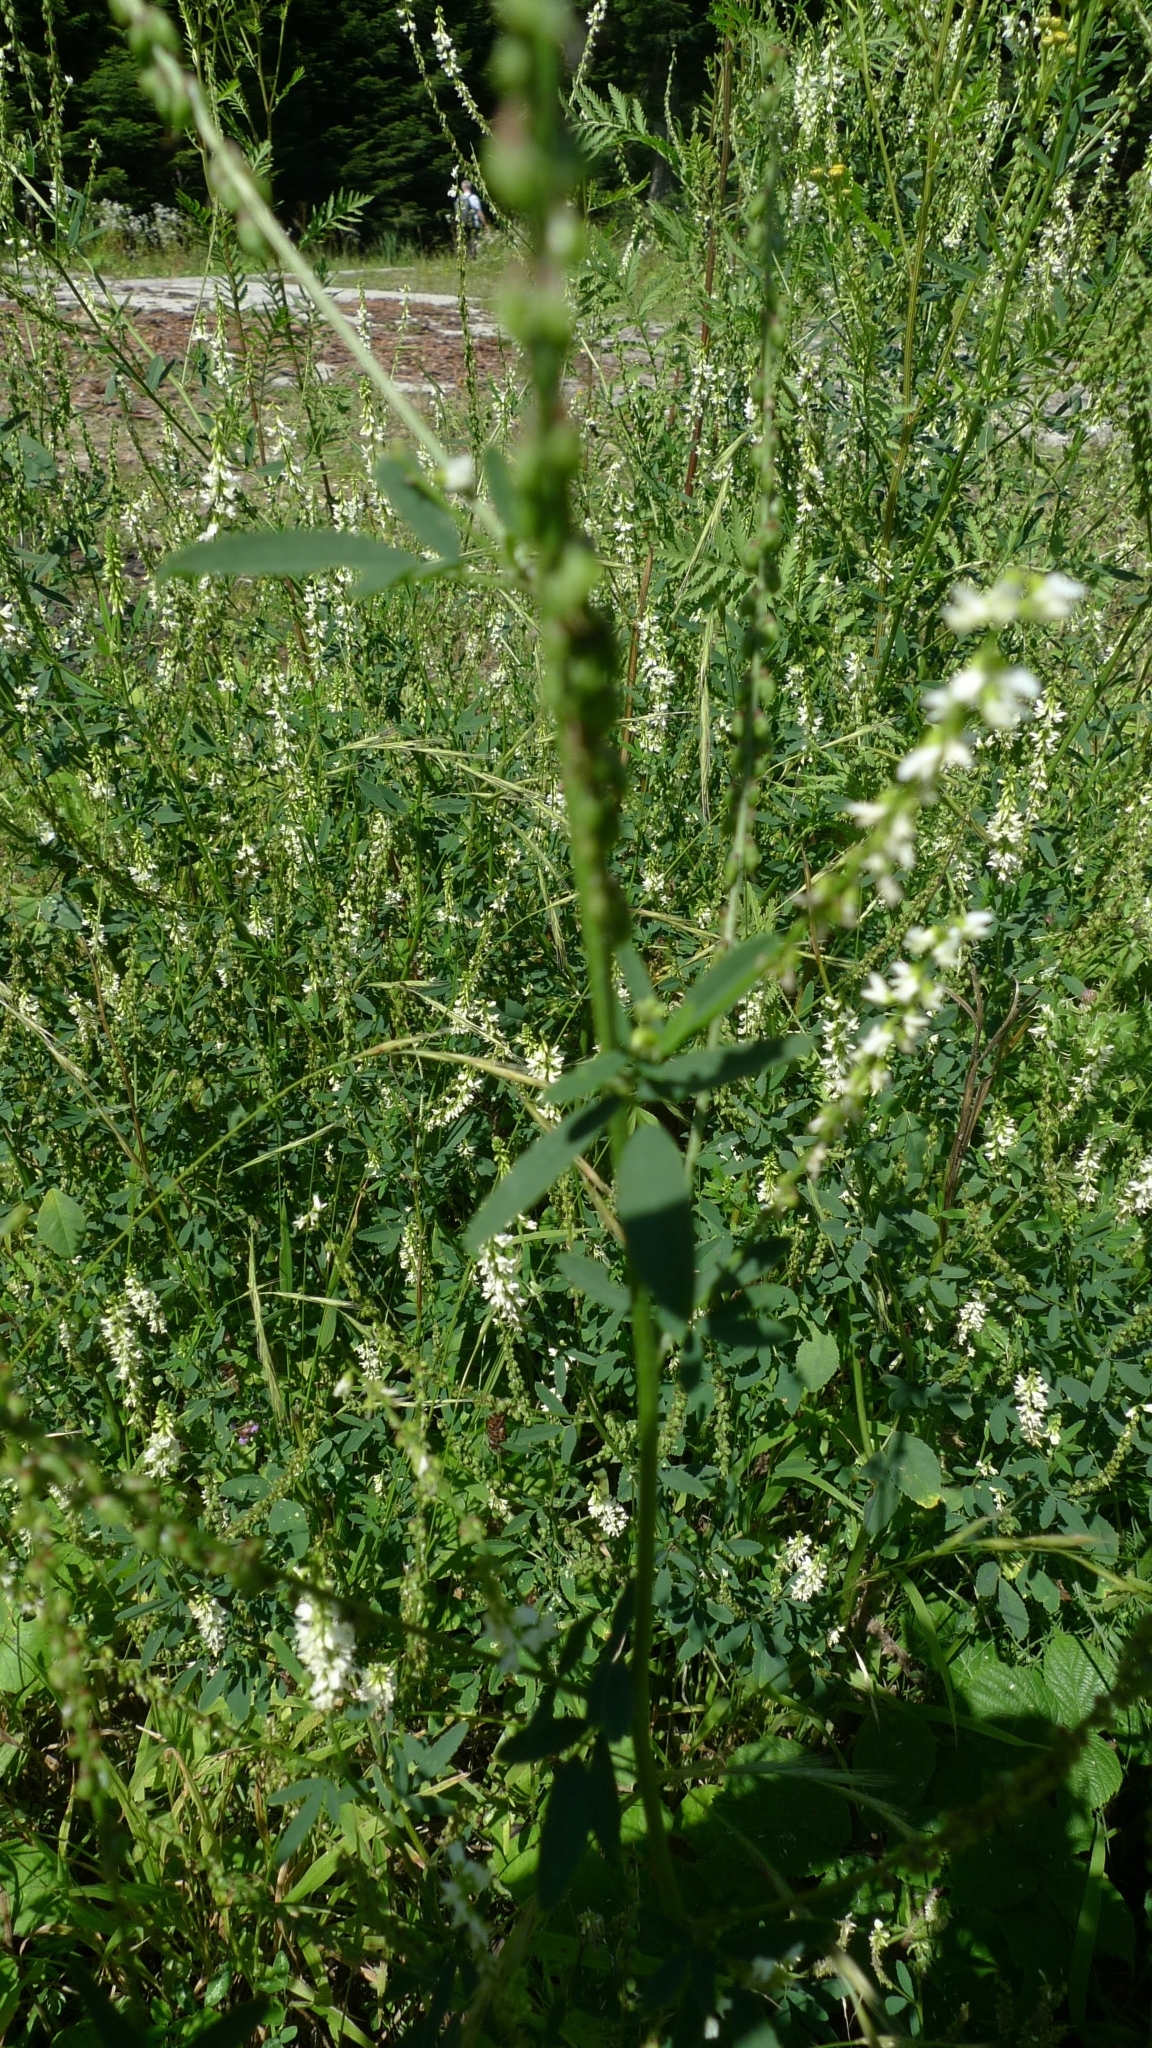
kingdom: Plantae
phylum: Tracheophyta
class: Magnoliopsida
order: Fabales
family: Fabaceae
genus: Melilotus
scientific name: Melilotus albus
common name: White melilot
